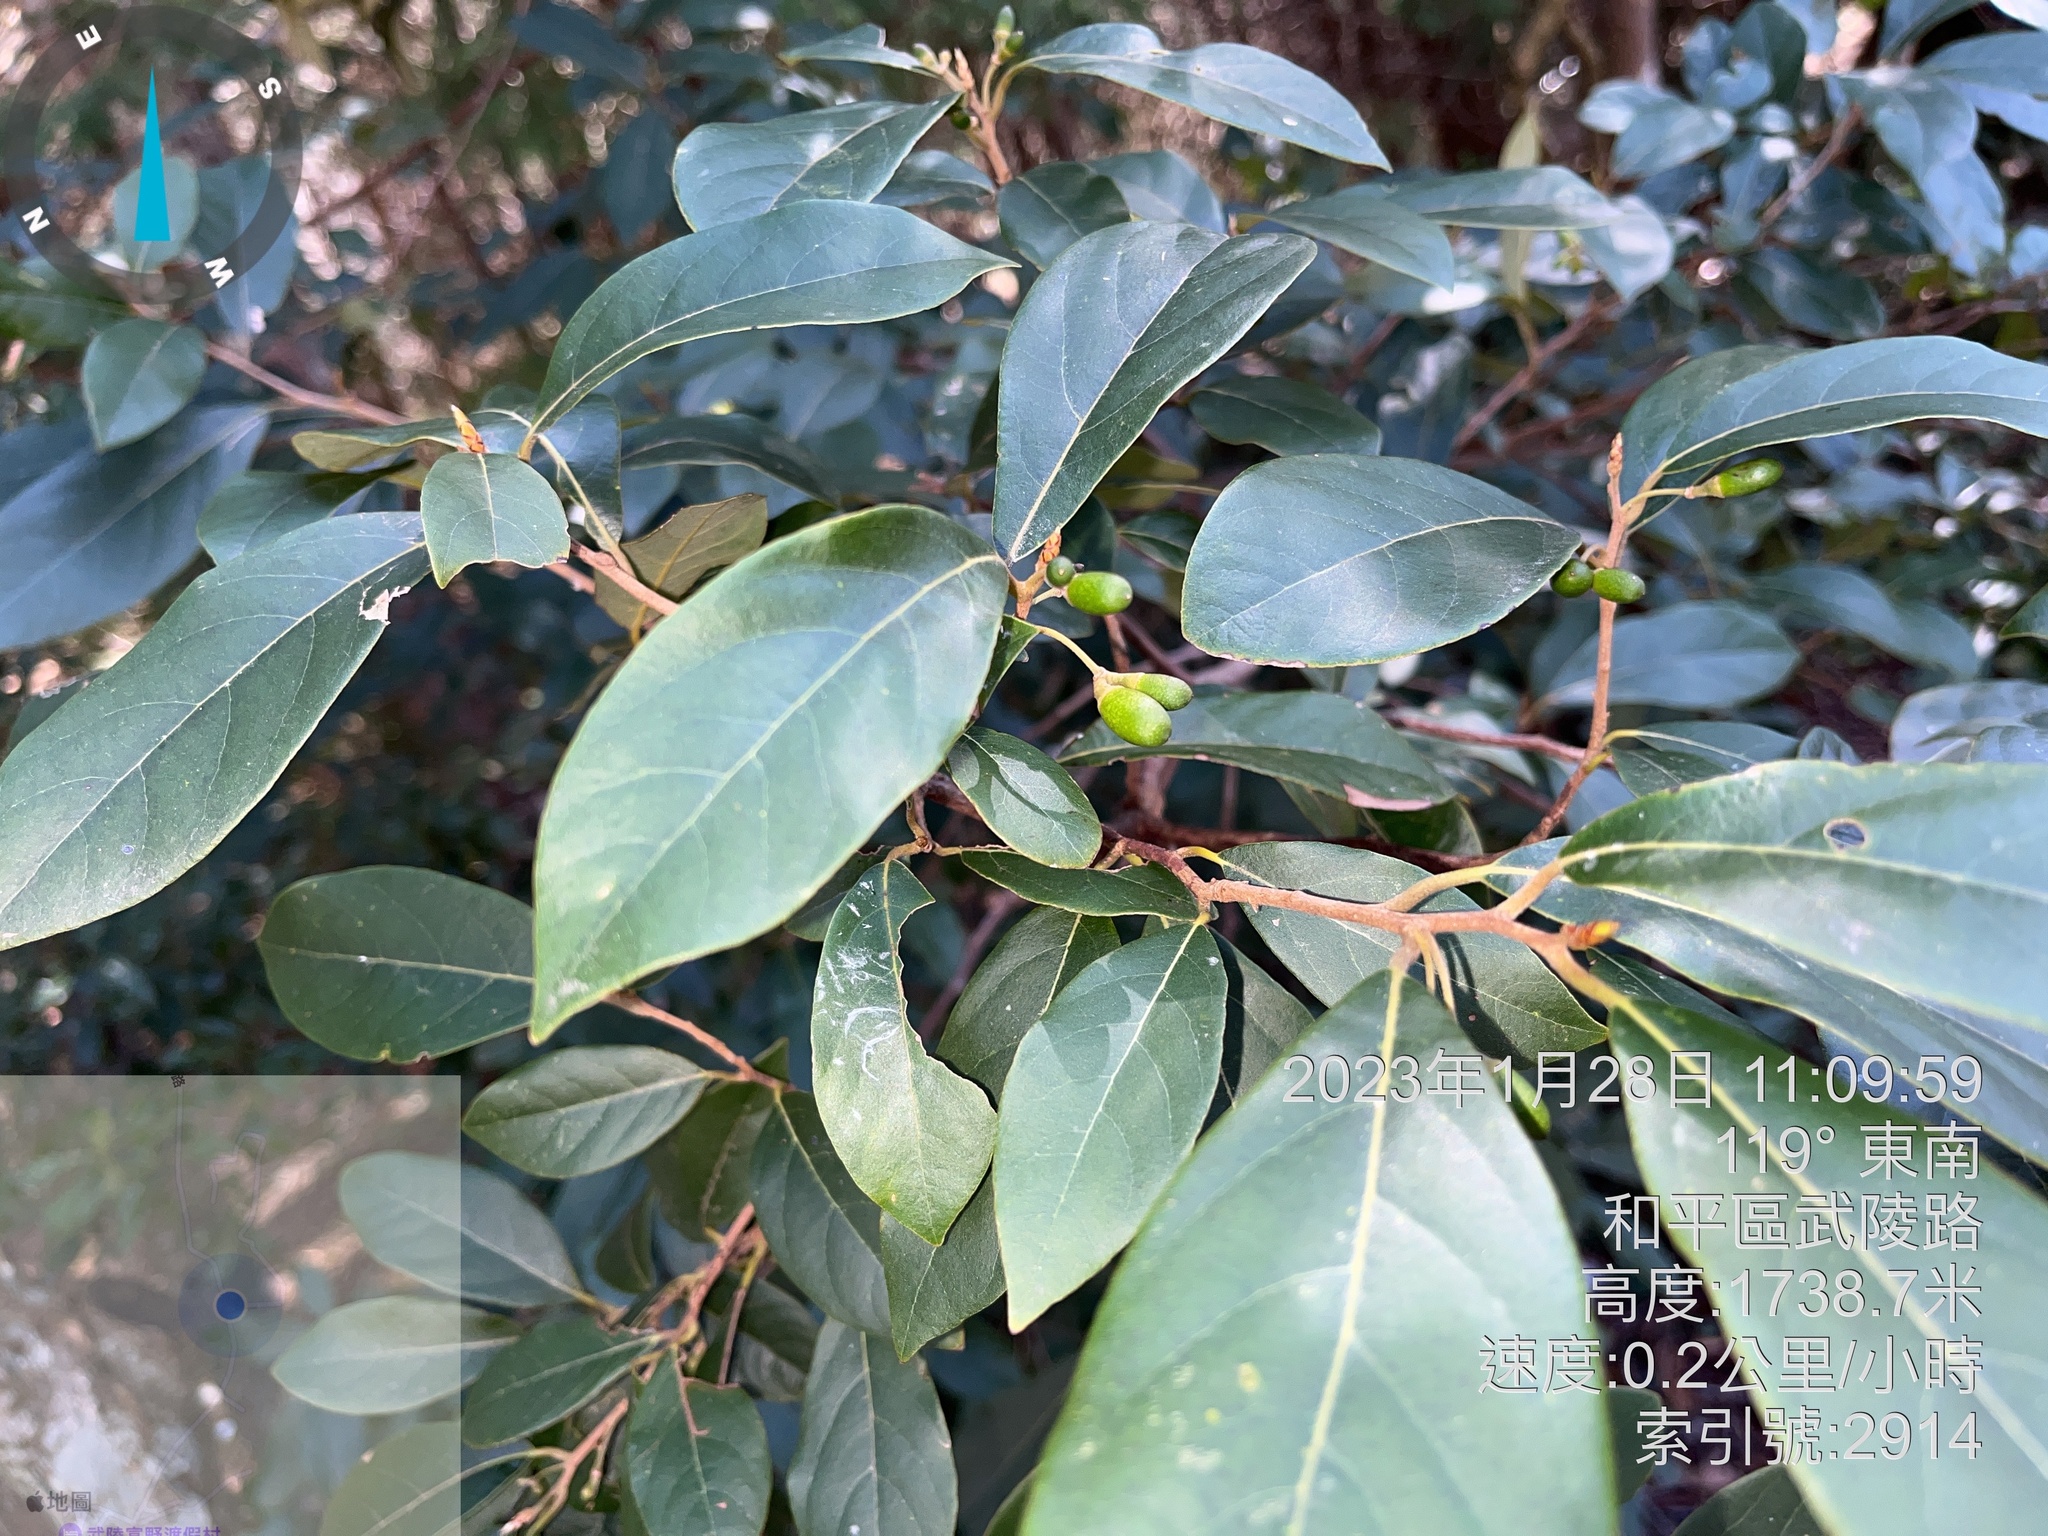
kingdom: Plantae
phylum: Tracheophyta
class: Magnoliopsida
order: Laurales
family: Lauraceae
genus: Litsea
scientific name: Litsea morrisonensis
